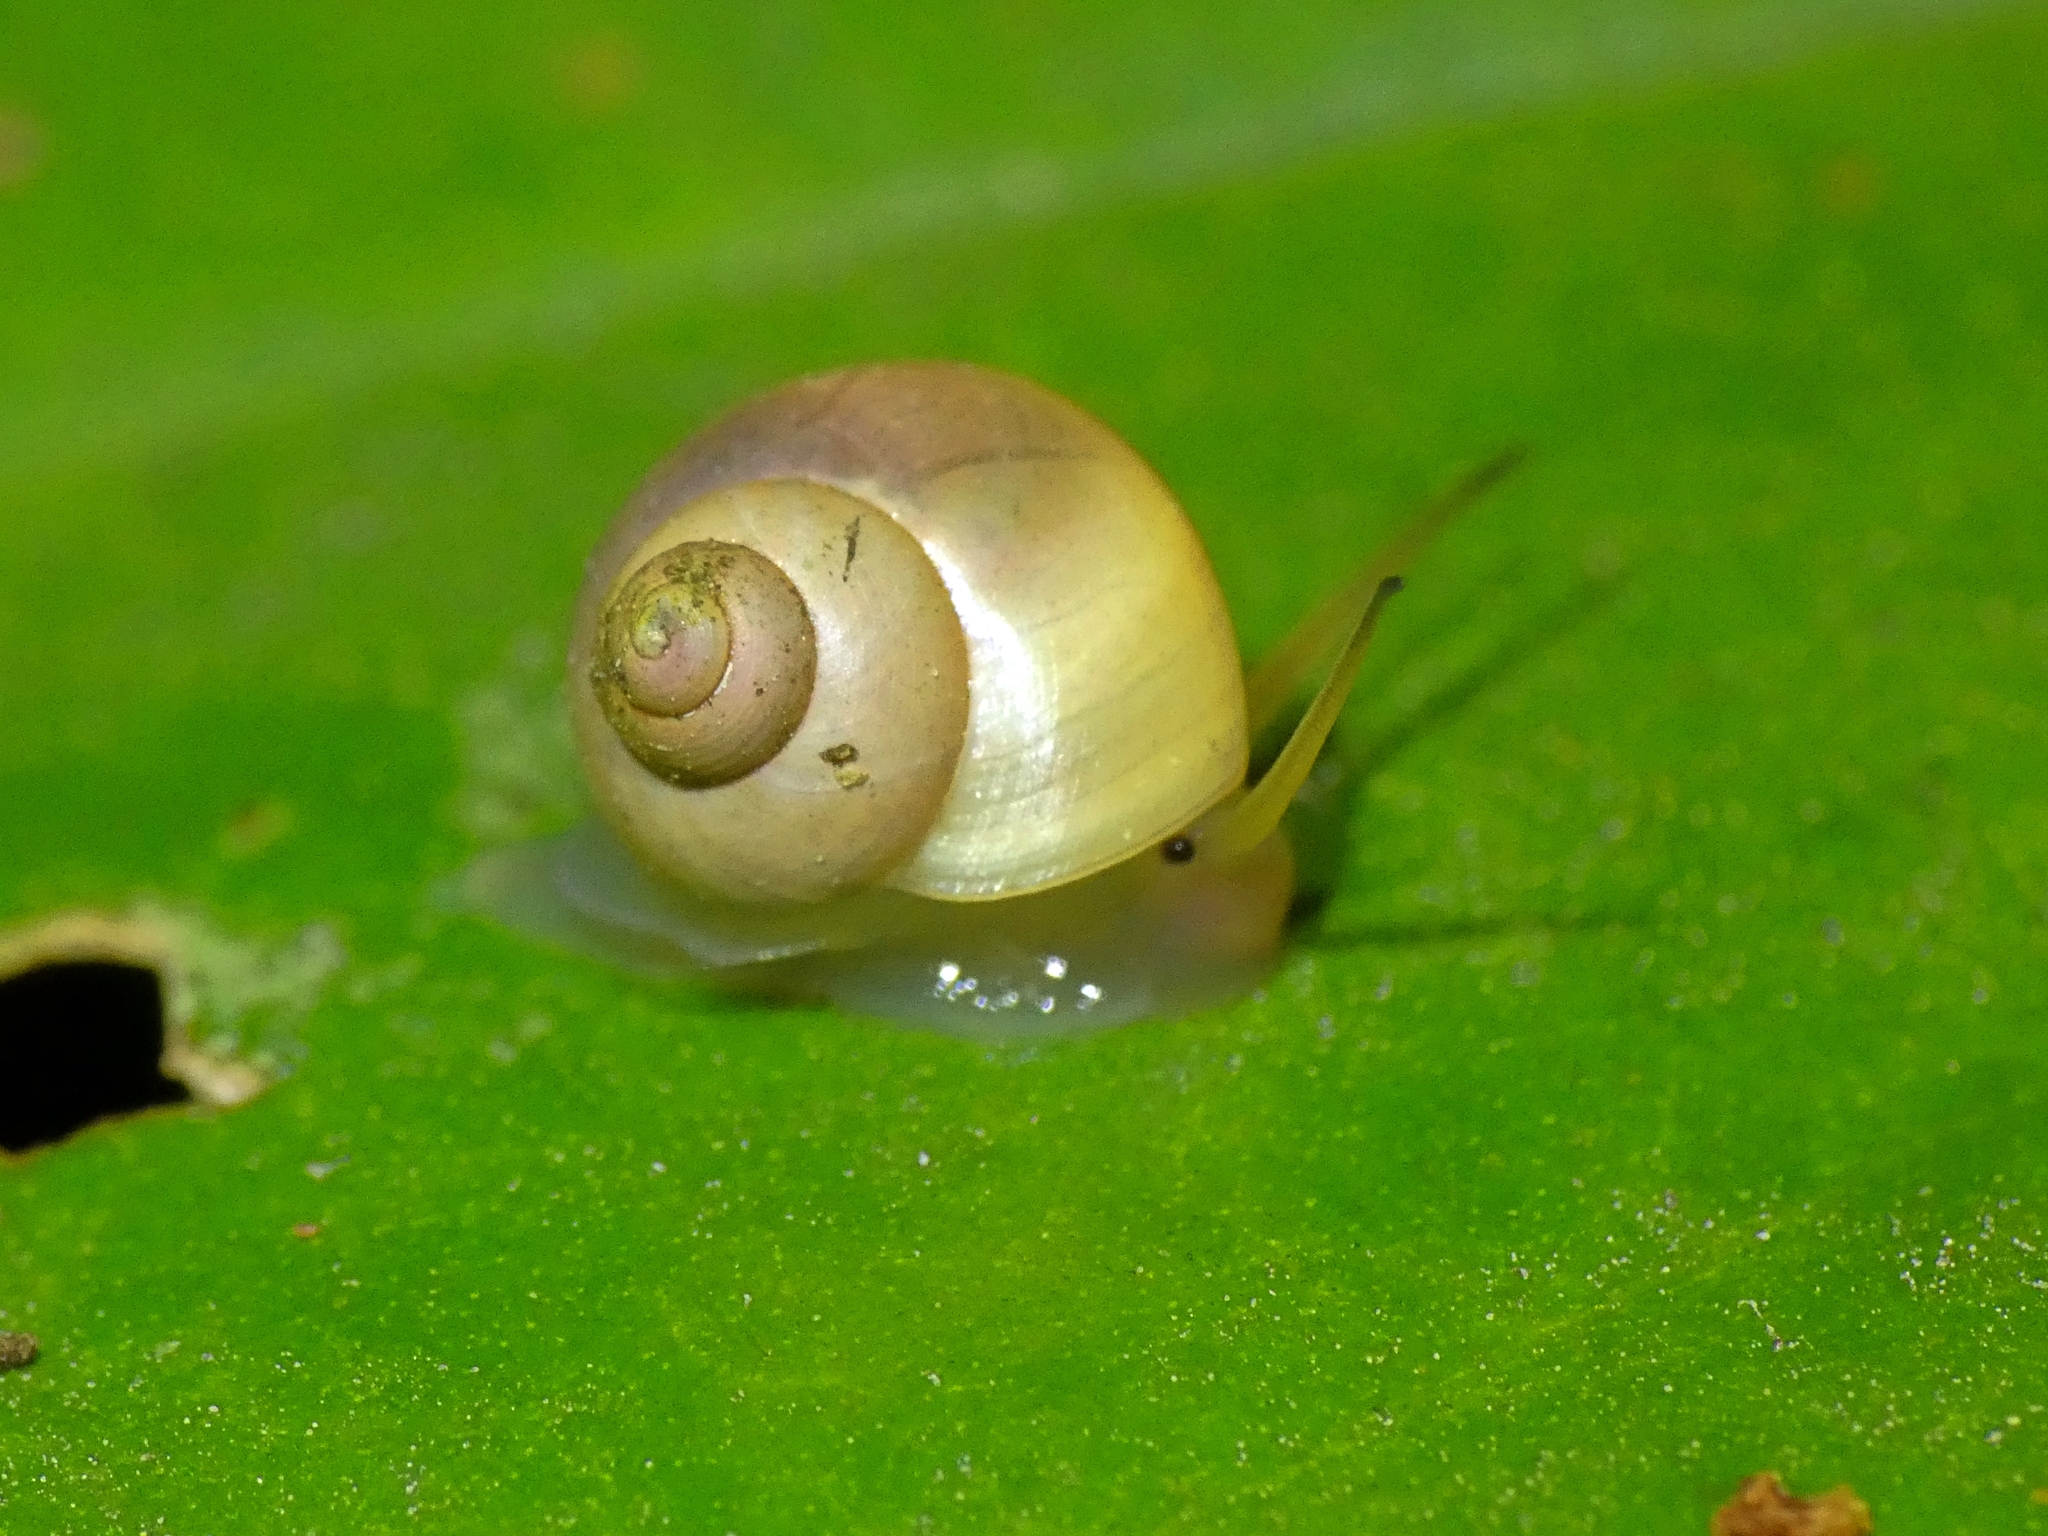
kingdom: Animalia
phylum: Mollusca
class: Gastropoda
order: Architaenioglossa
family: Cyclophoridae
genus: Leptopoma
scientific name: Leptopoma perlucidum
